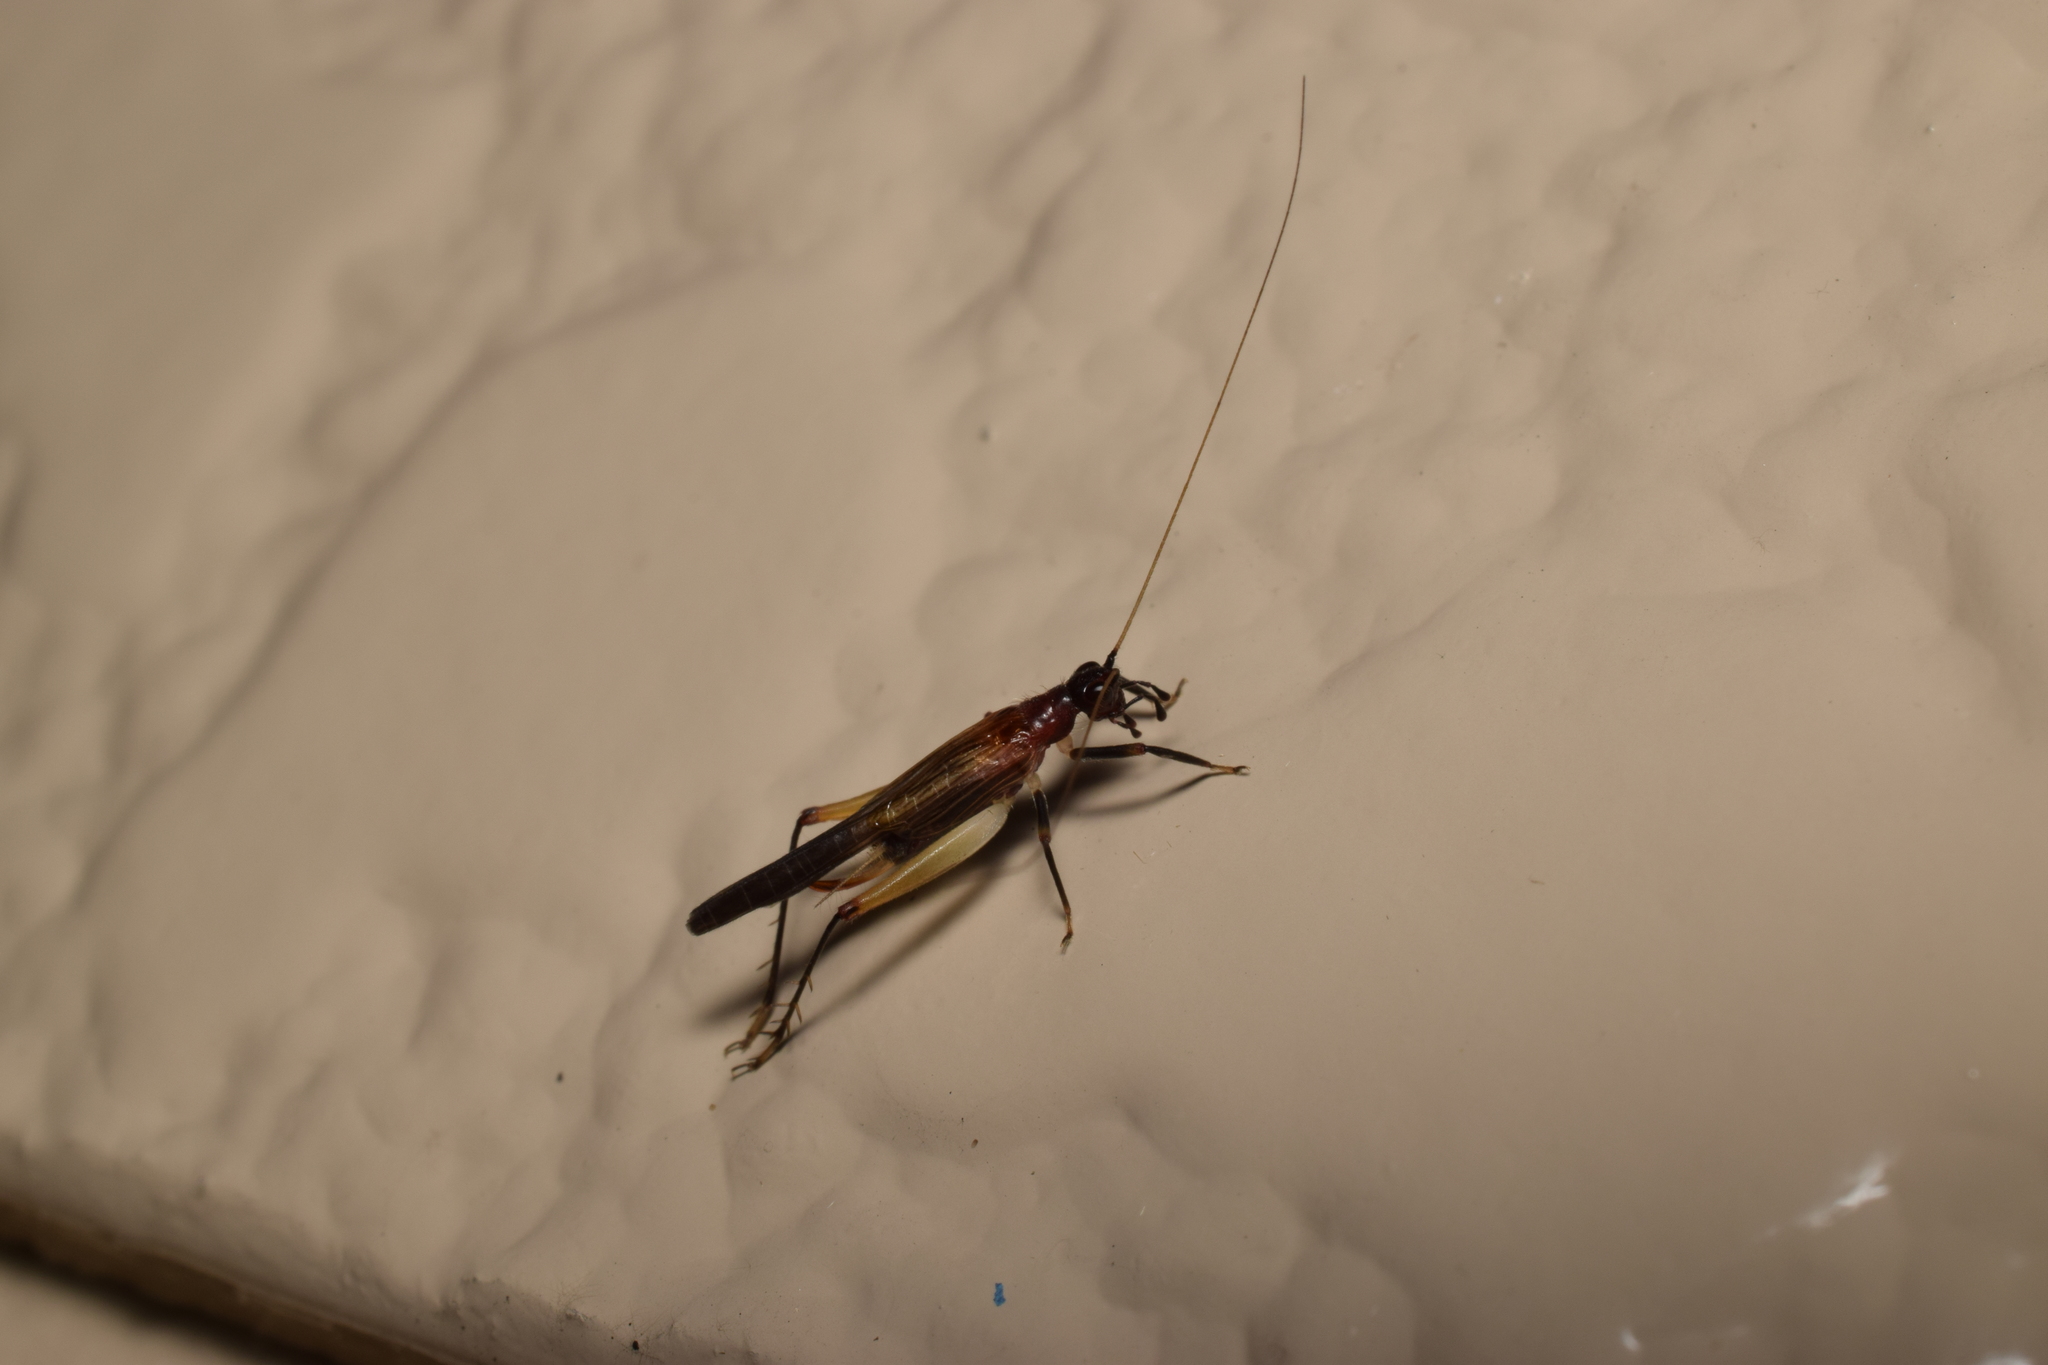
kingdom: Animalia
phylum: Arthropoda
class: Insecta
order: Orthoptera
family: Trigonidiidae
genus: Homoeoxipha
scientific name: Homoeoxipha obliterata
